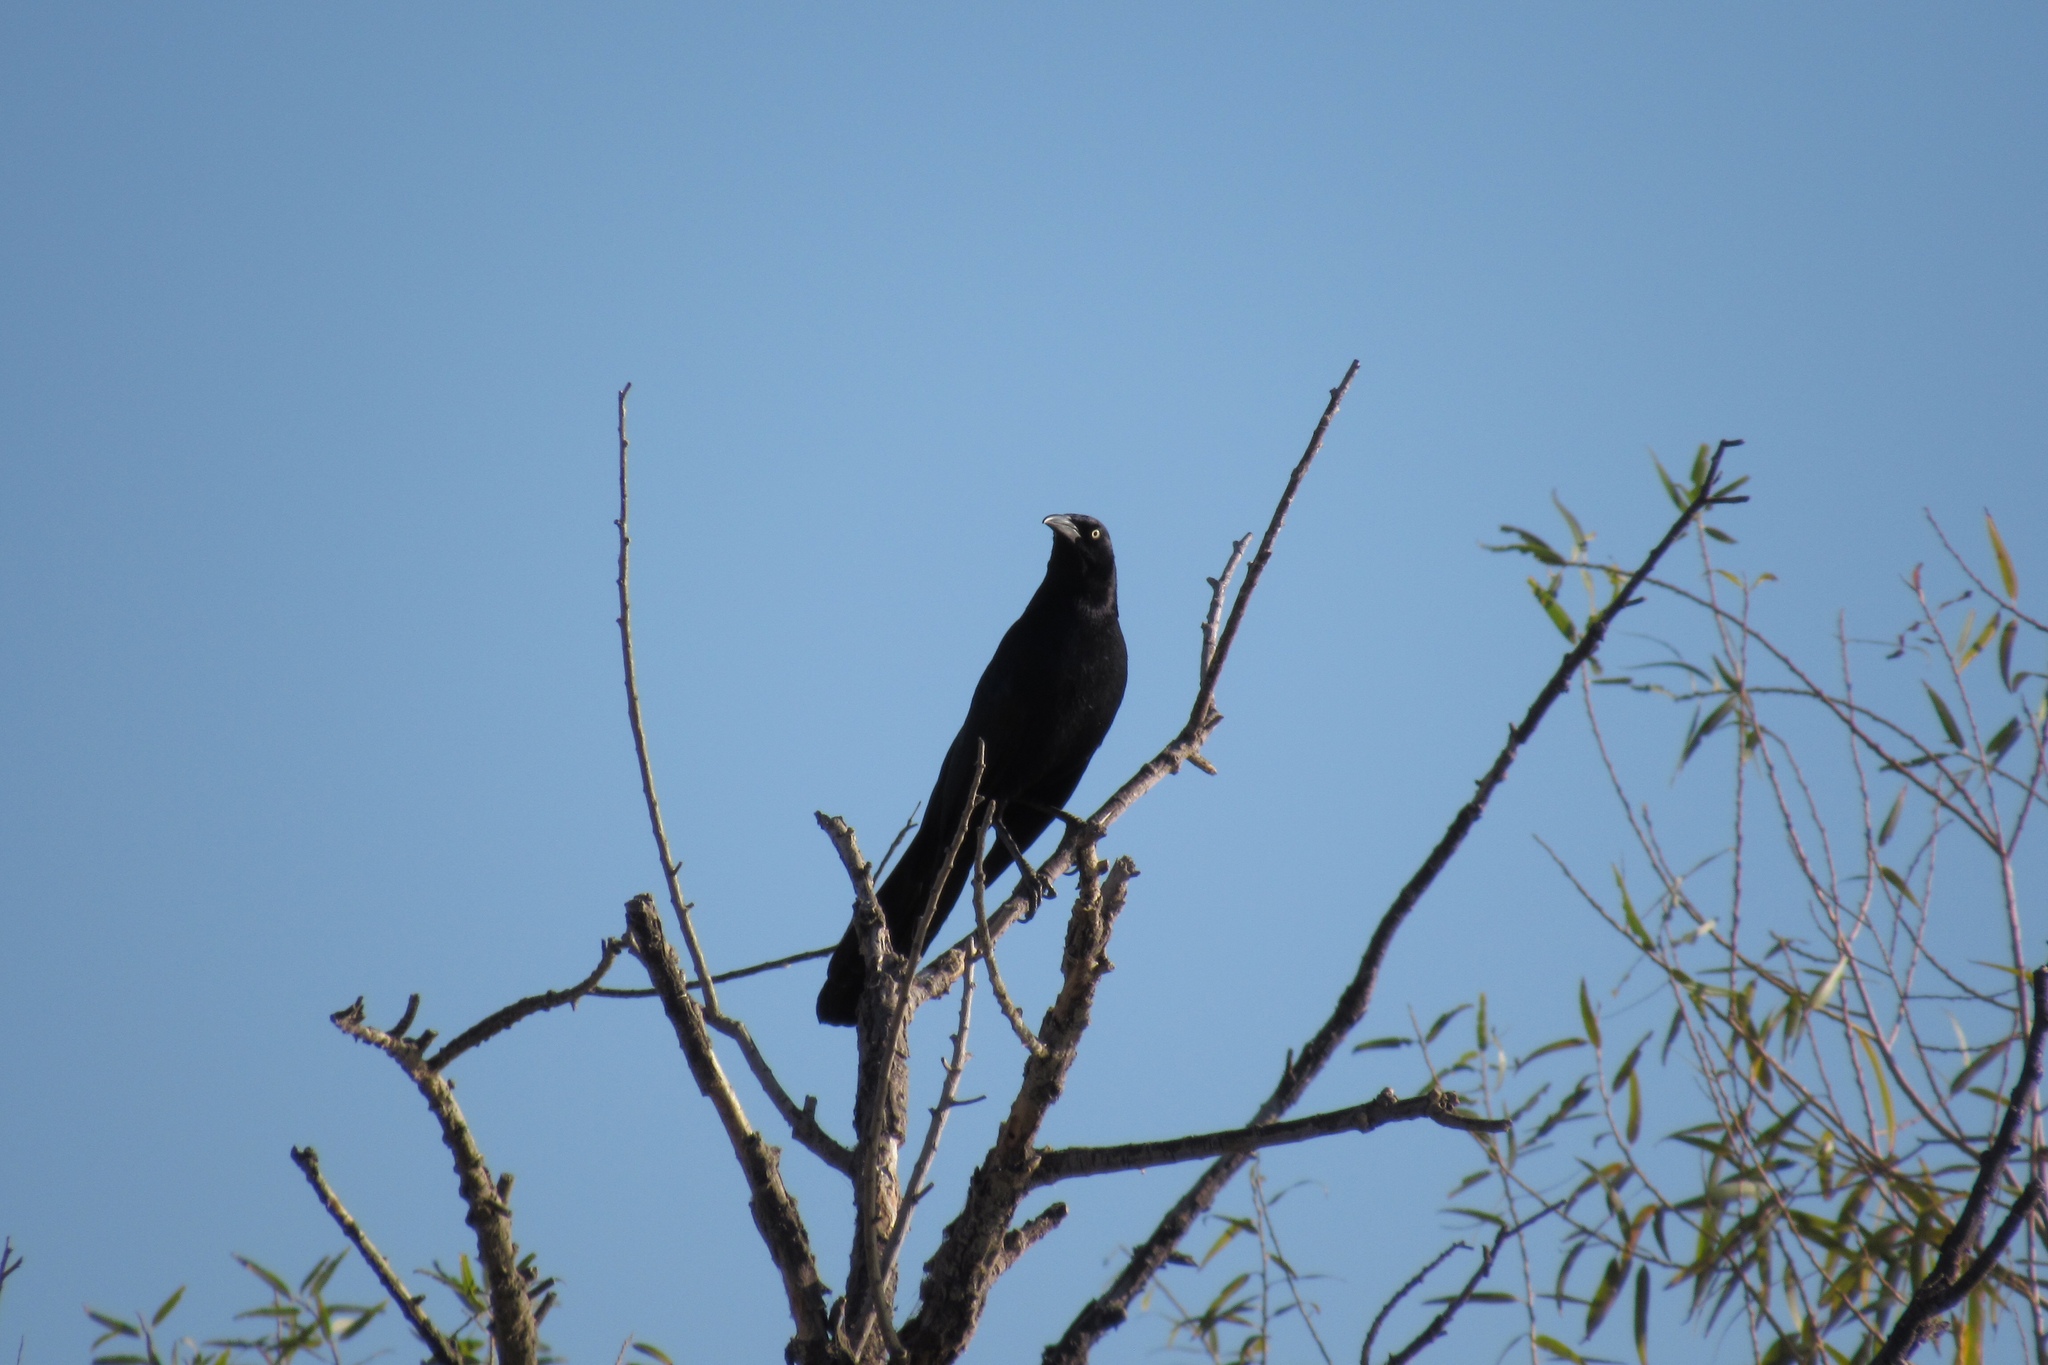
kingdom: Animalia
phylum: Chordata
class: Aves
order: Passeriformes
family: Icteridae
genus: Quiscalus
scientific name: Quiscalus mexicanus
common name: Great-tailed grackle
